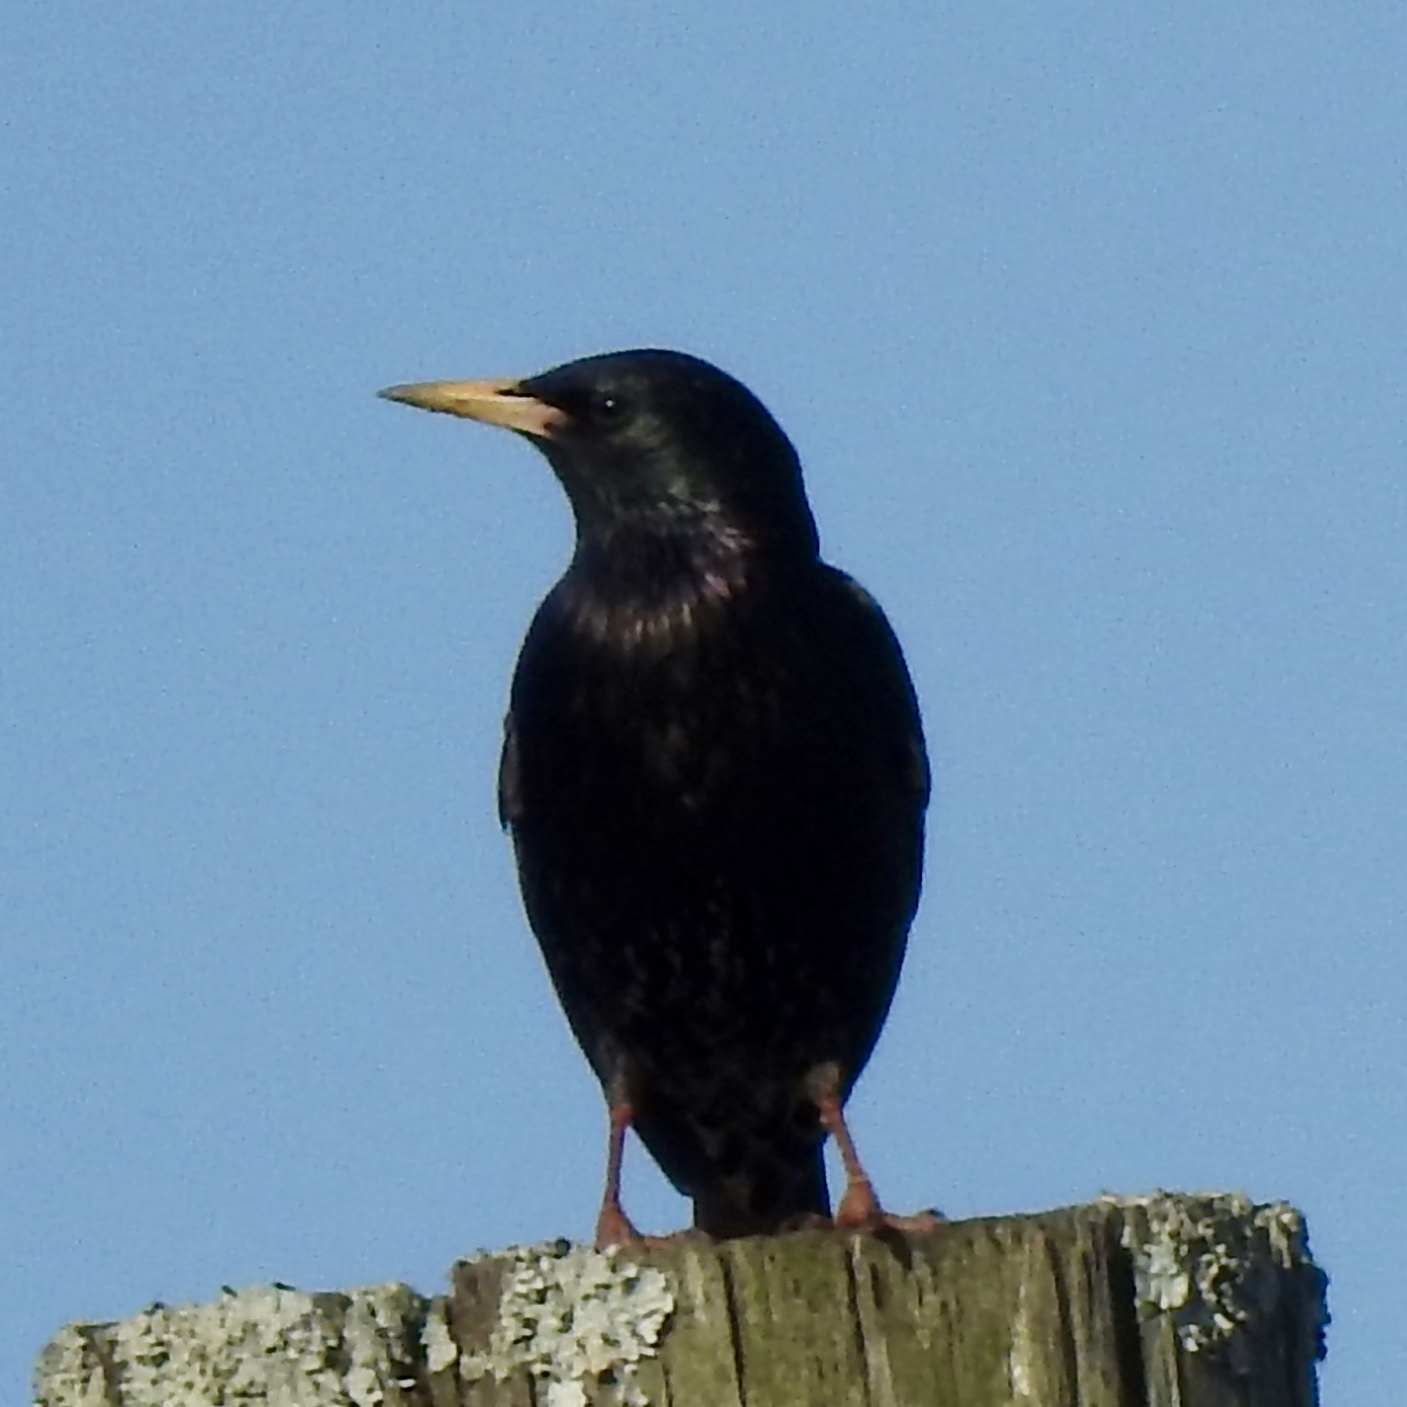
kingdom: Animalia
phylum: Chordata
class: Aves
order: Passeriformes
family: Sturnidae
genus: Sturnus
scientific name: Sturnus vulgaris
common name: Common starling
